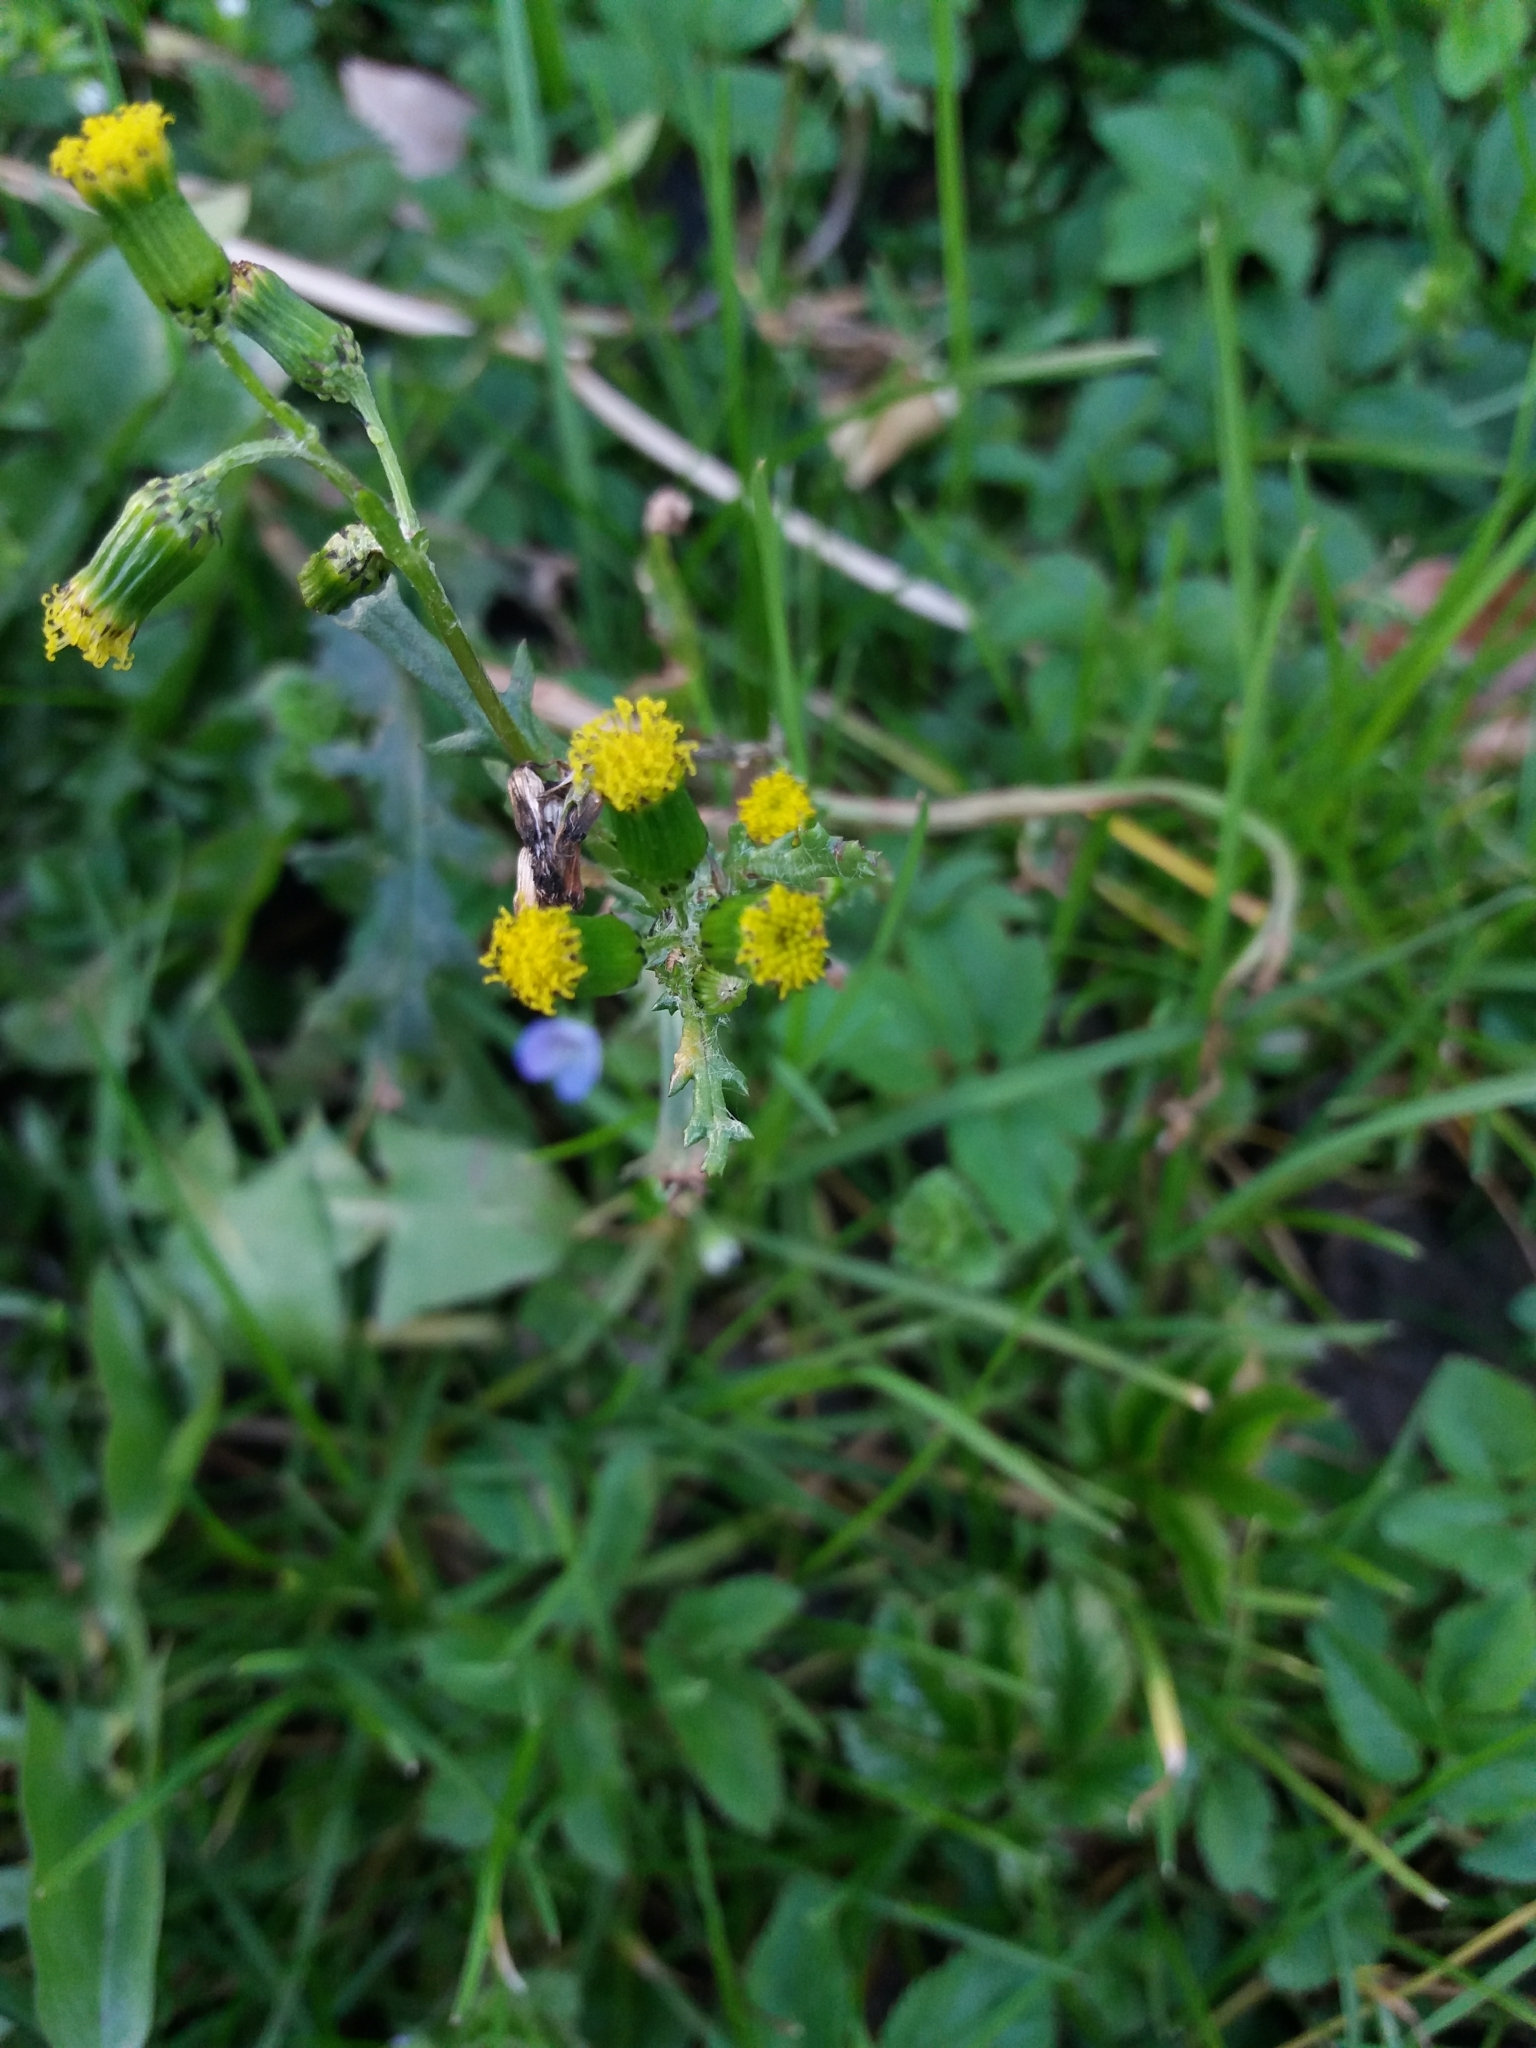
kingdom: Plantae
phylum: Tracheophyta
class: Magnoliopsida
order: Asterales
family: Asteraceae
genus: Senecio
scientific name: Senecio vulgaris
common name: Old-man-in-the-spring
